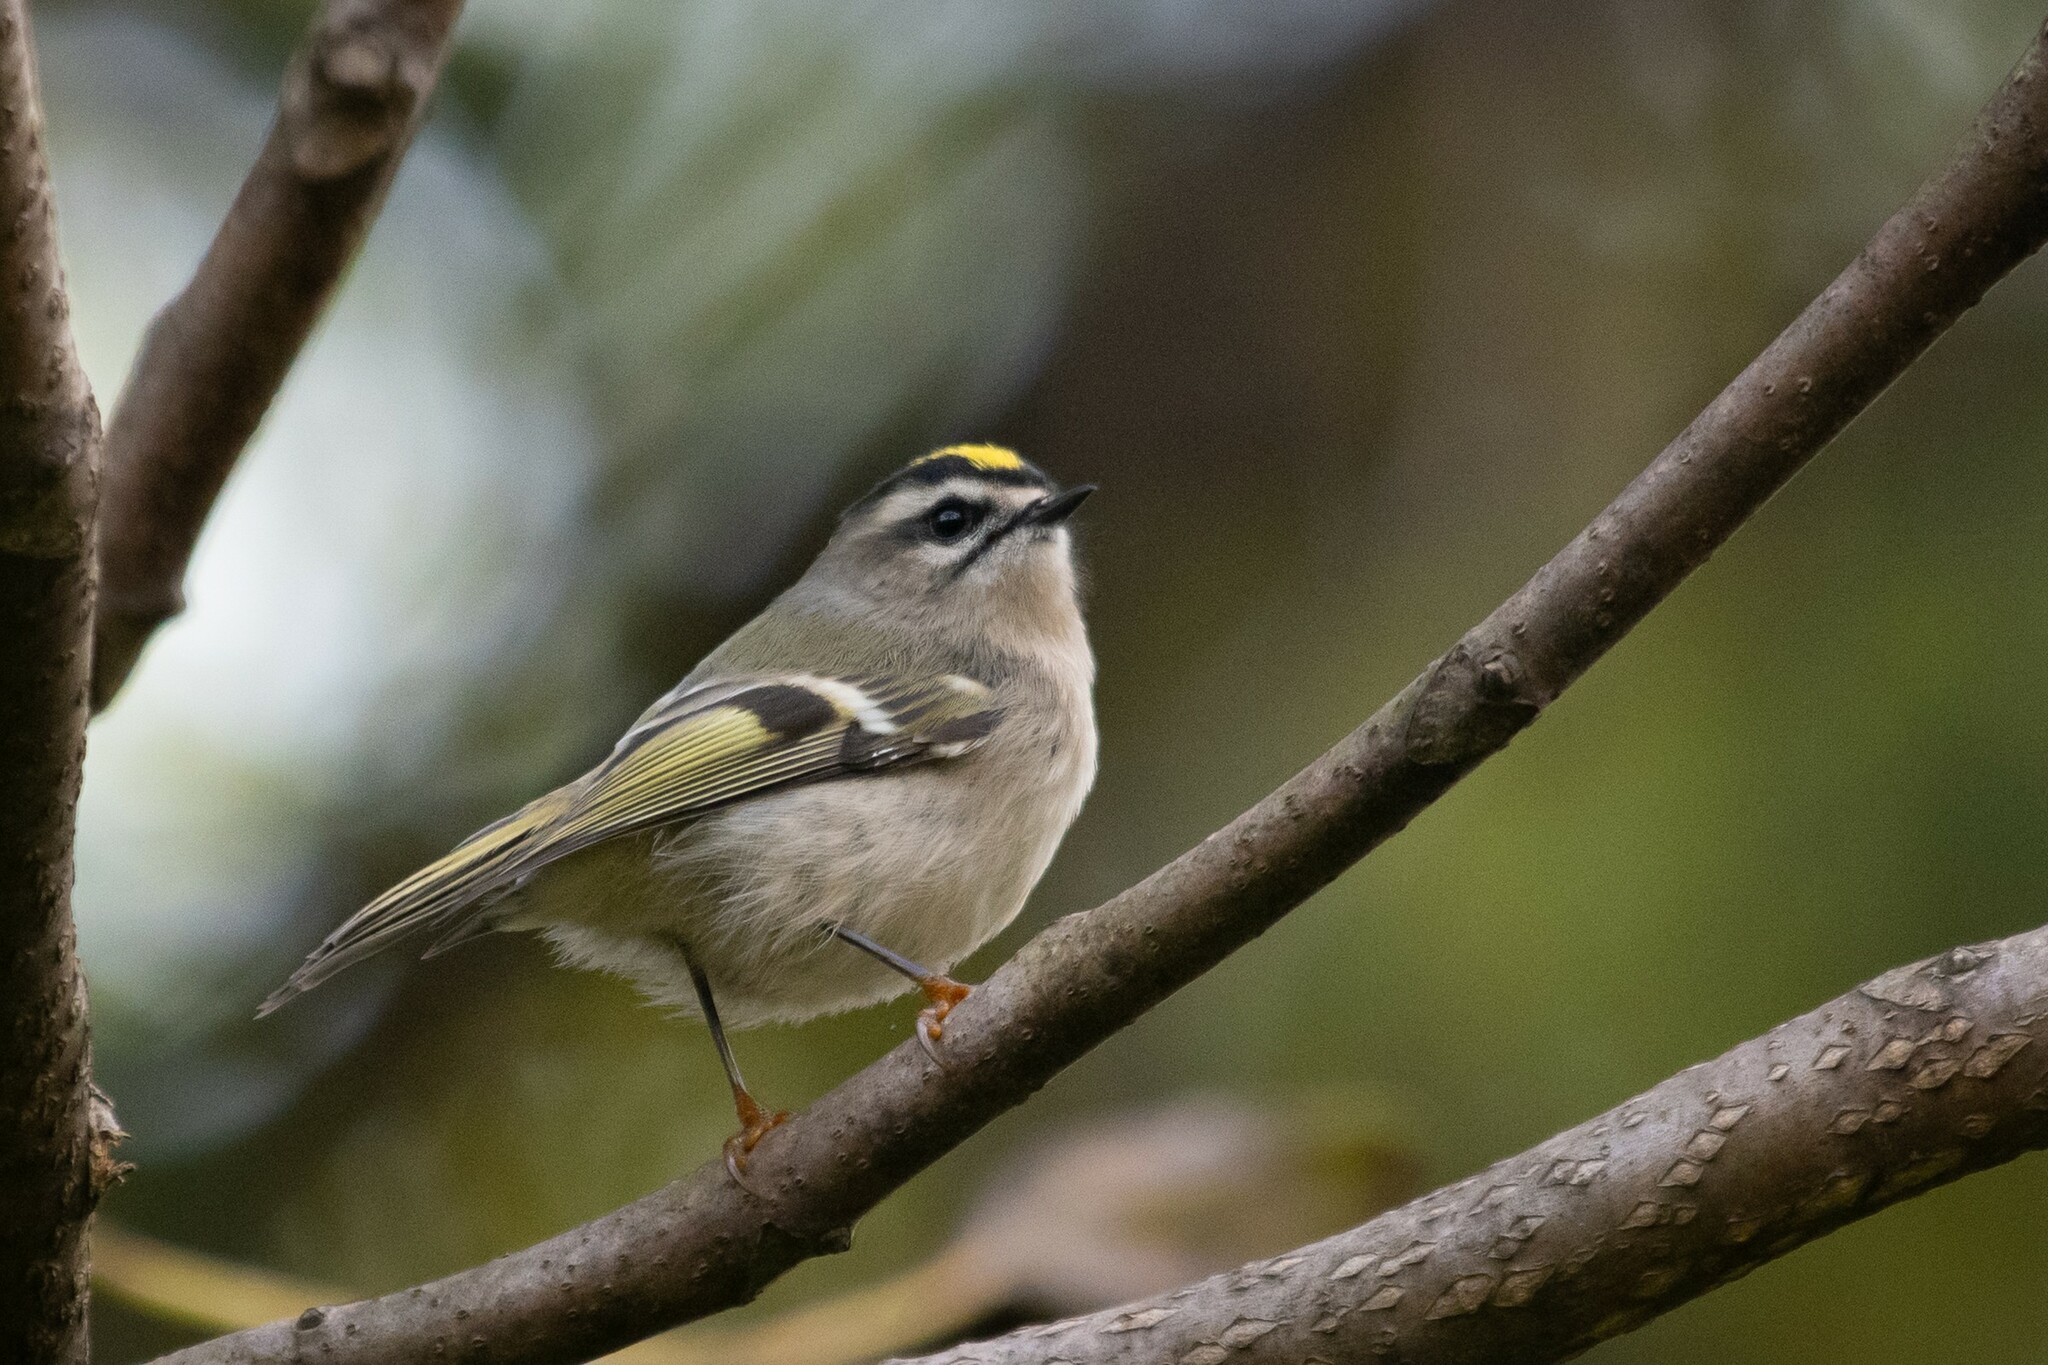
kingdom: Animalia
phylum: Chordata
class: Aves
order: Passeriformes
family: Regulidae
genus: Regulus
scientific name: Regulus satrapa
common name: Golden-crowned kinglet
